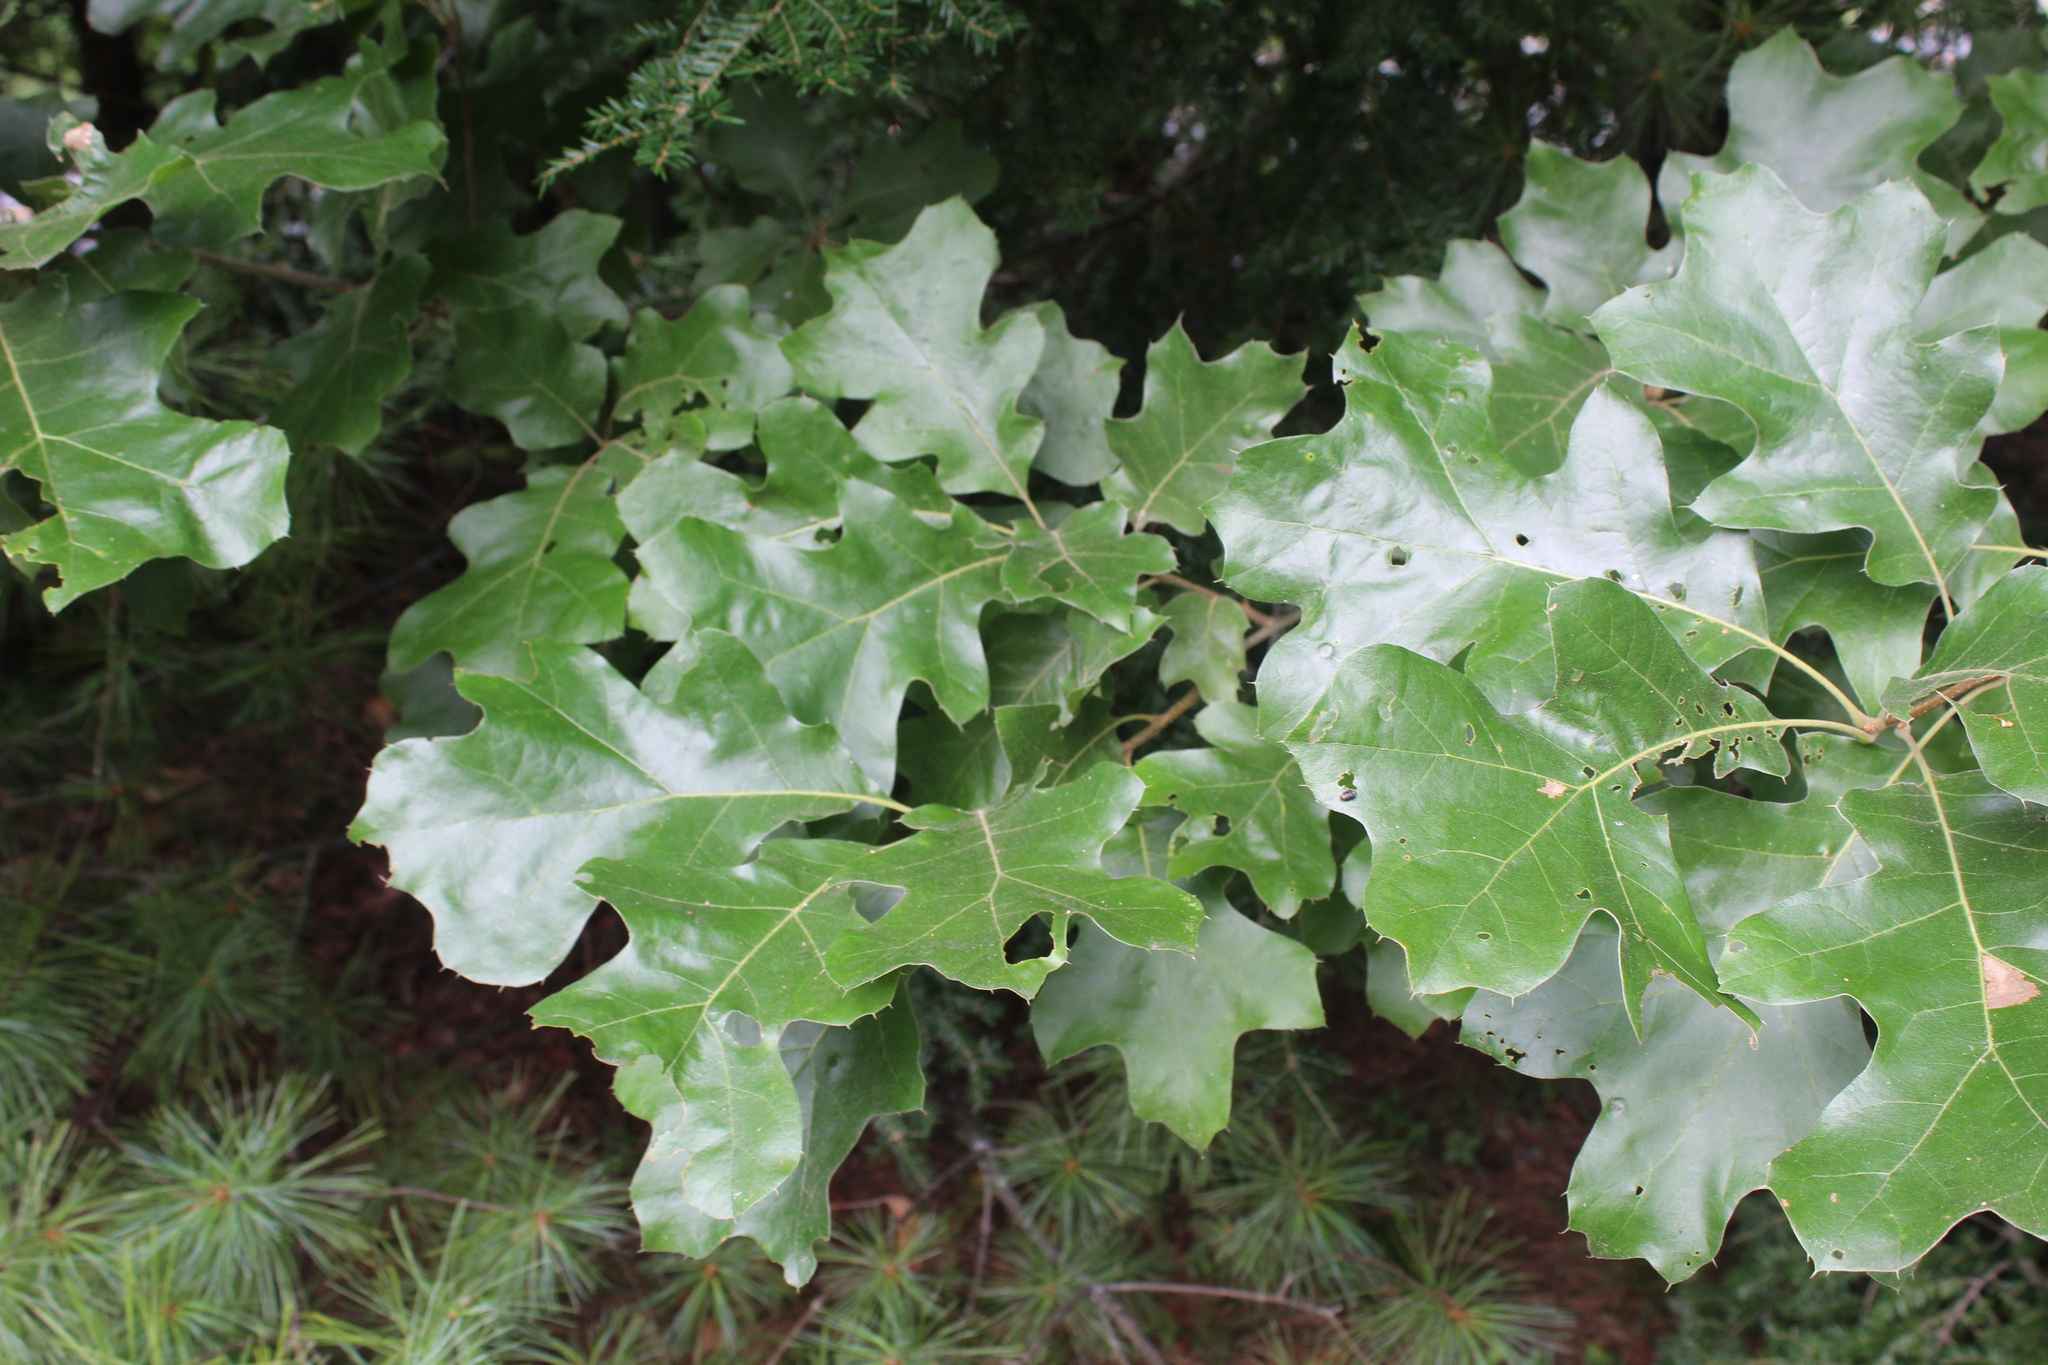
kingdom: Plantae
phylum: Tracheophyta
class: Magnoliopsida
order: Fagales
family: Fagaceae
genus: Quercus
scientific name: Quercus velutina
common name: Black oak
